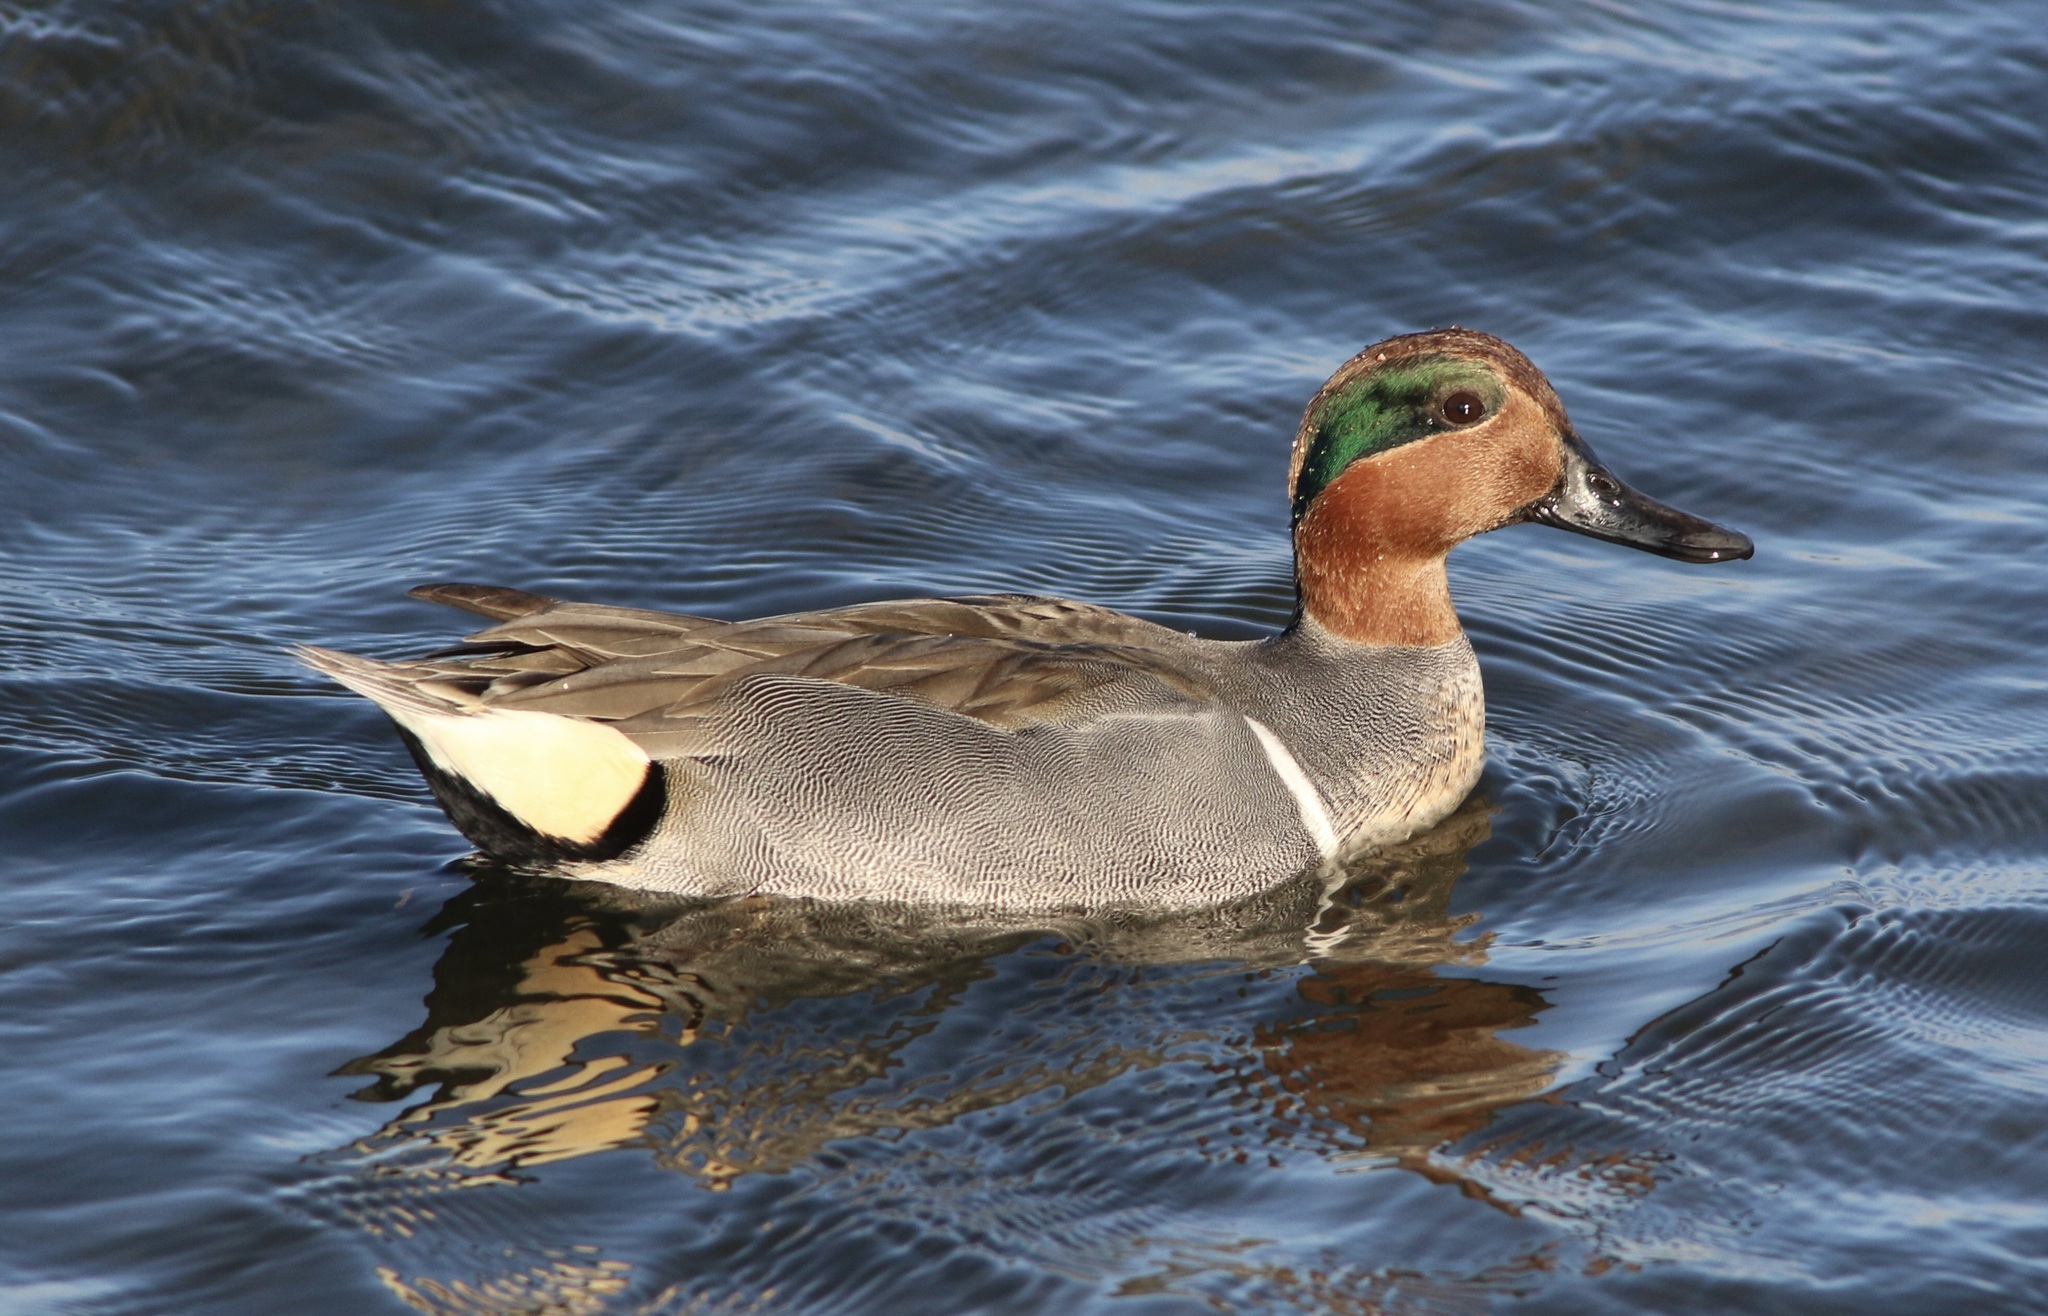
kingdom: Animalia
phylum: Chordata
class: Aves
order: Anseriformes
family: Anatidae
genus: Anas
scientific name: Anas crecca
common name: Eurasian teal
